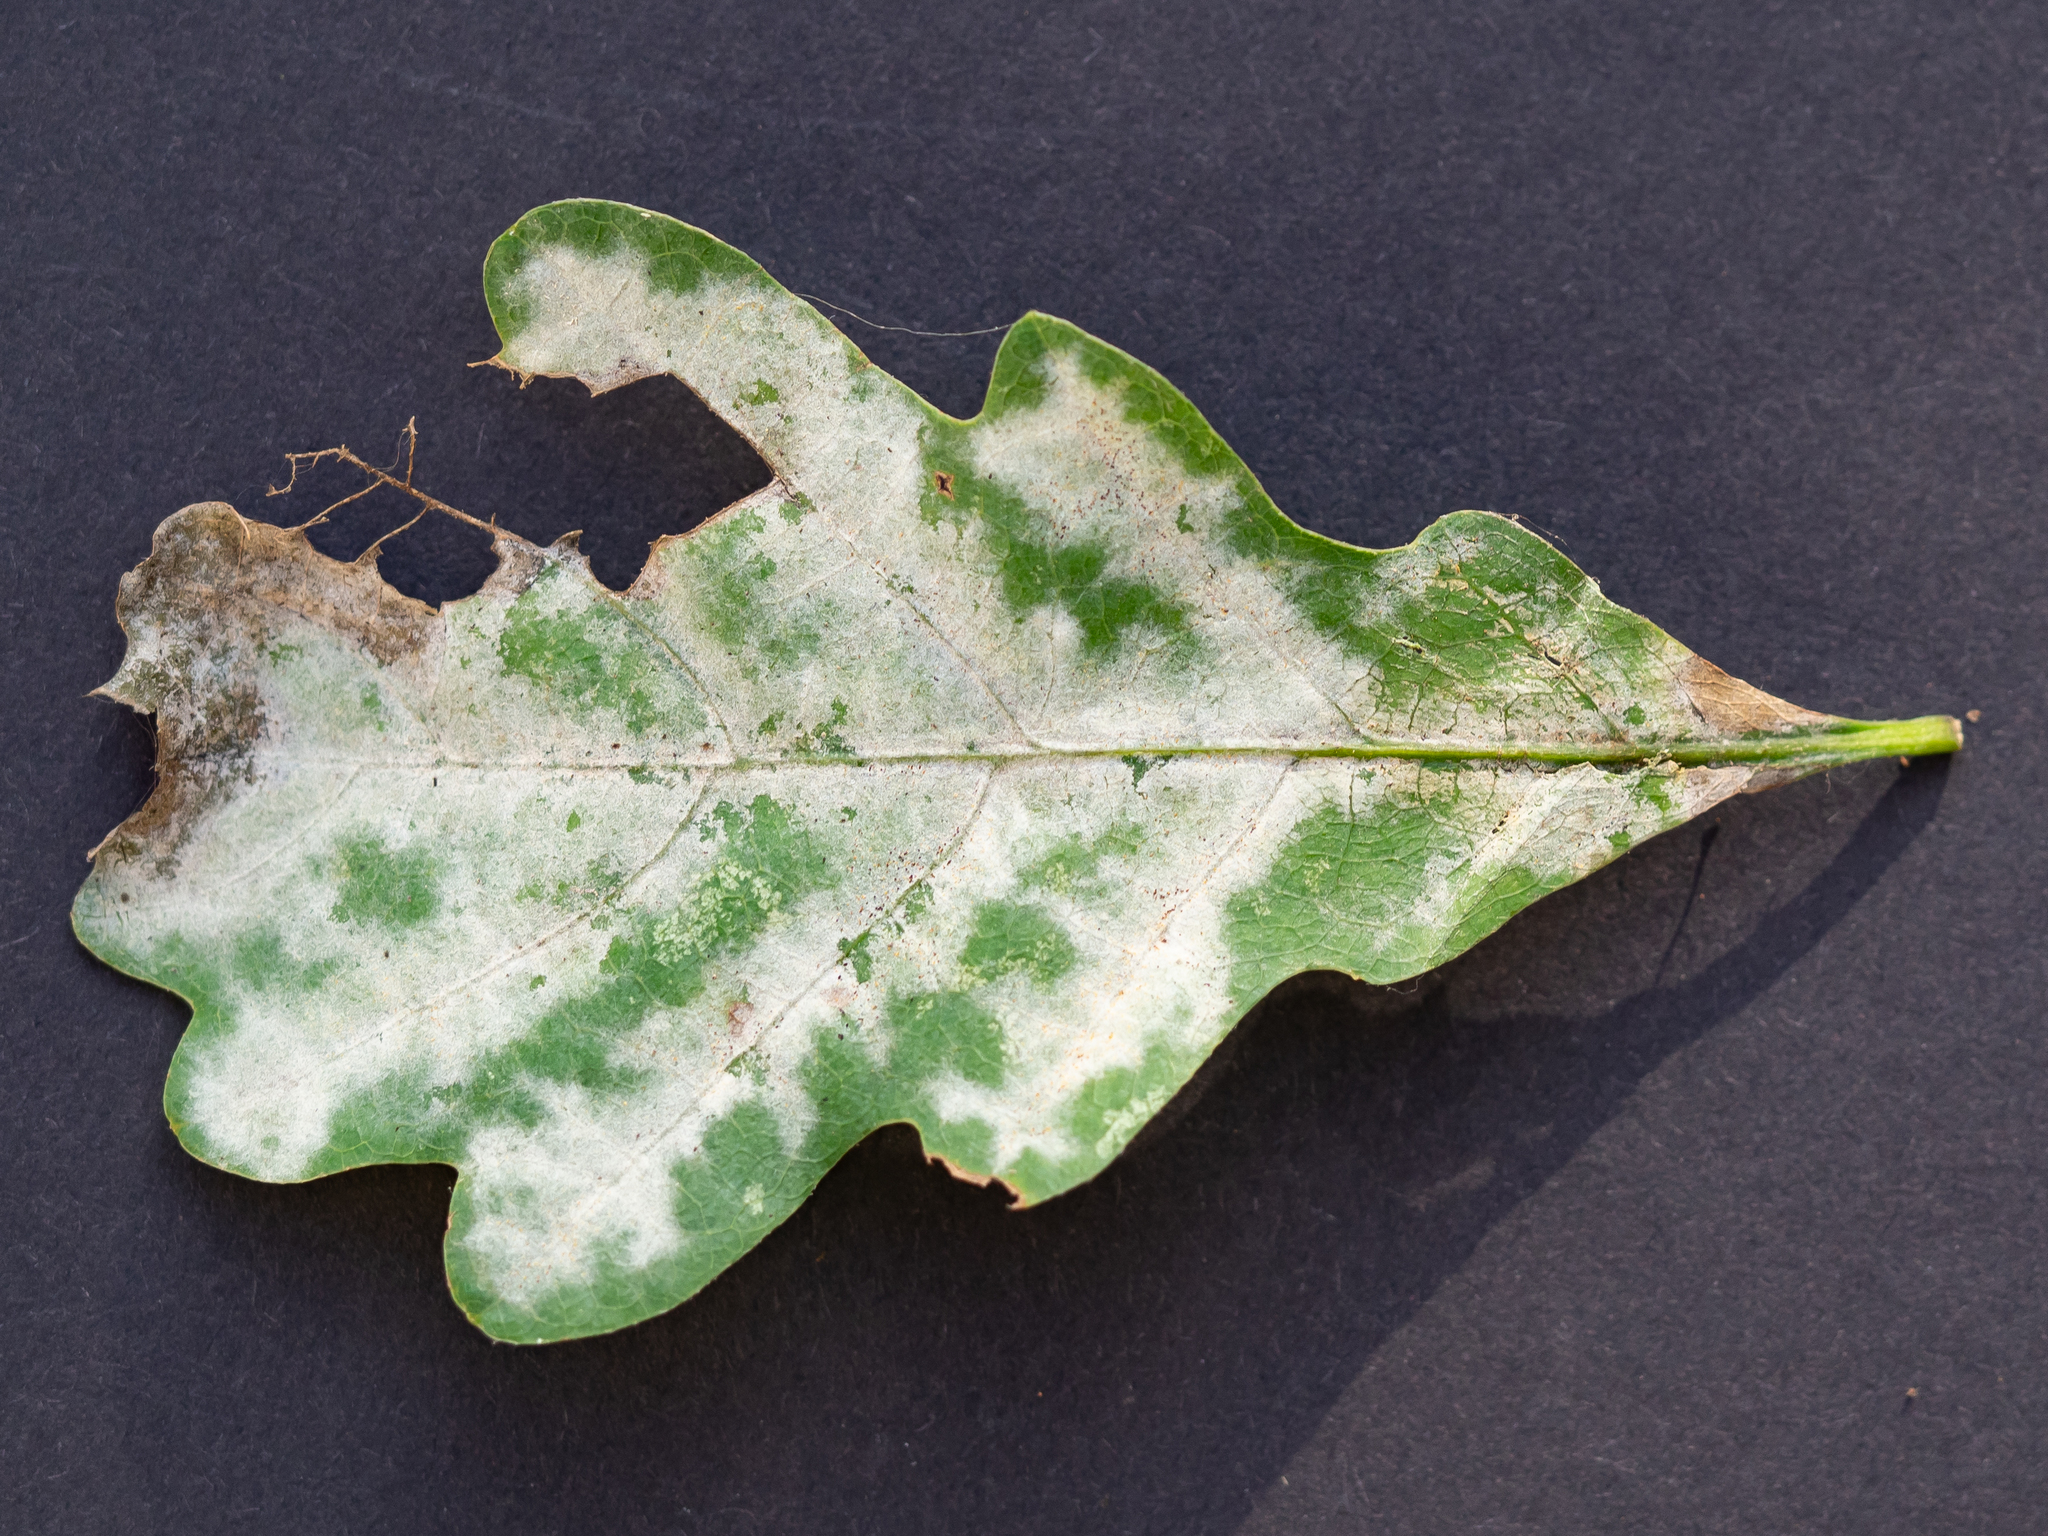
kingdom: Fungi
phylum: Ascomycota
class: Leotiomycetes
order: Helotiales
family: Erysiphaceae
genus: Erysiphe
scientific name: Erysiphe
